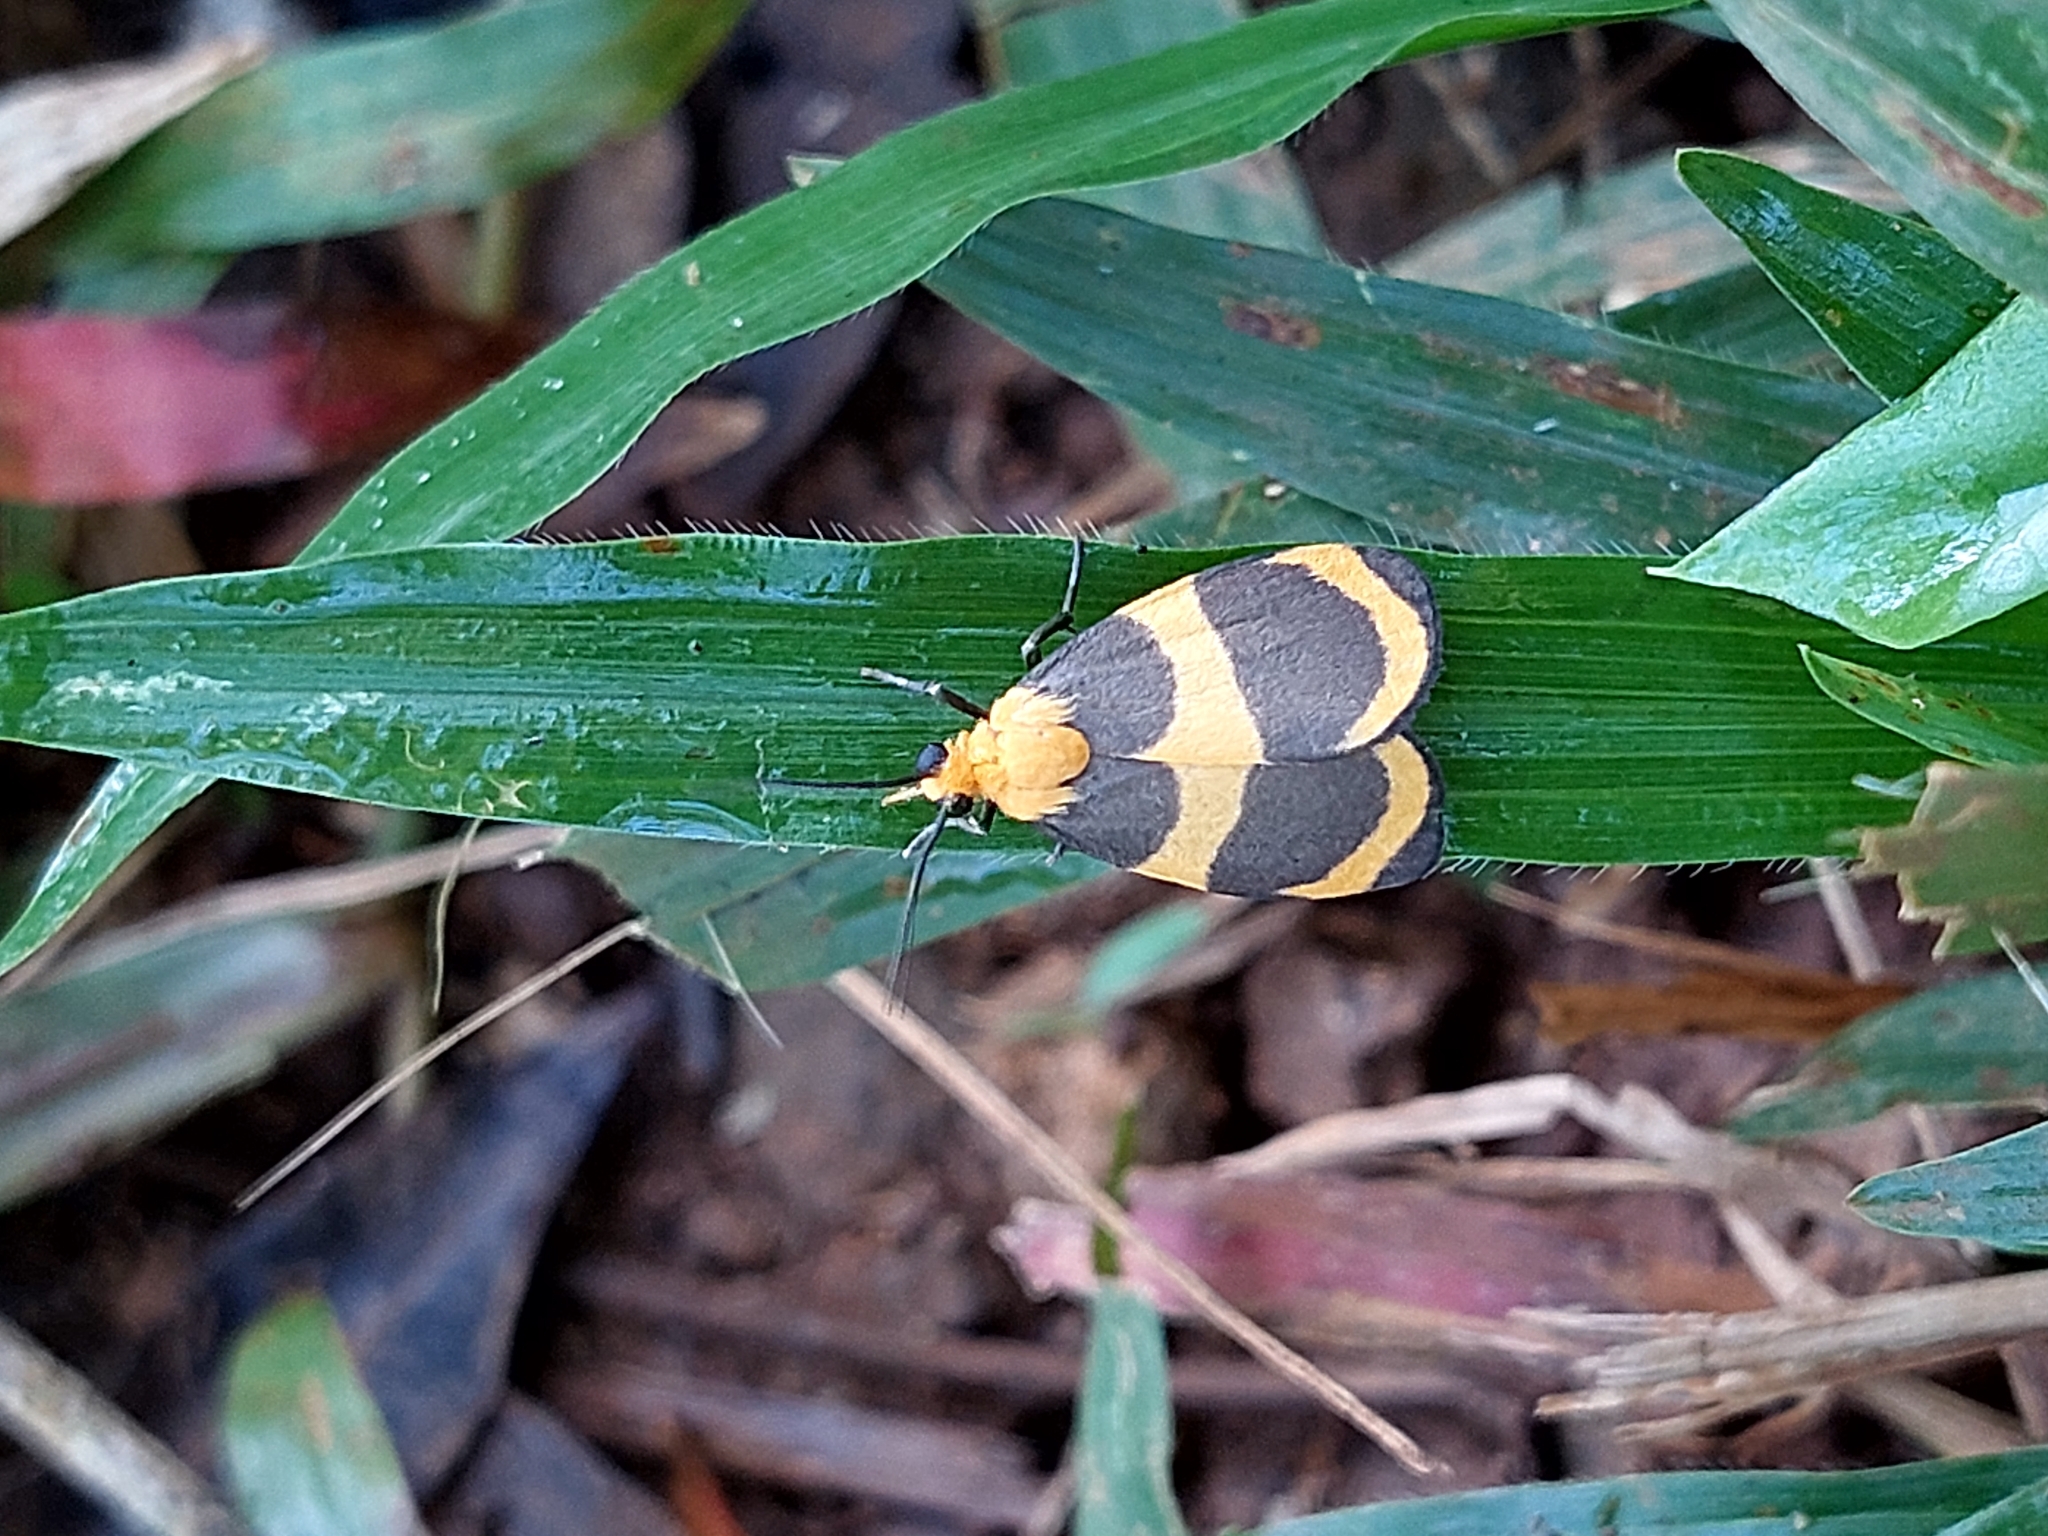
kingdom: Animalia
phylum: Arthropoda
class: Insecta
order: Lepidoptera
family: Erebidae
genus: Eudesmia
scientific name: Eudesmia menea
